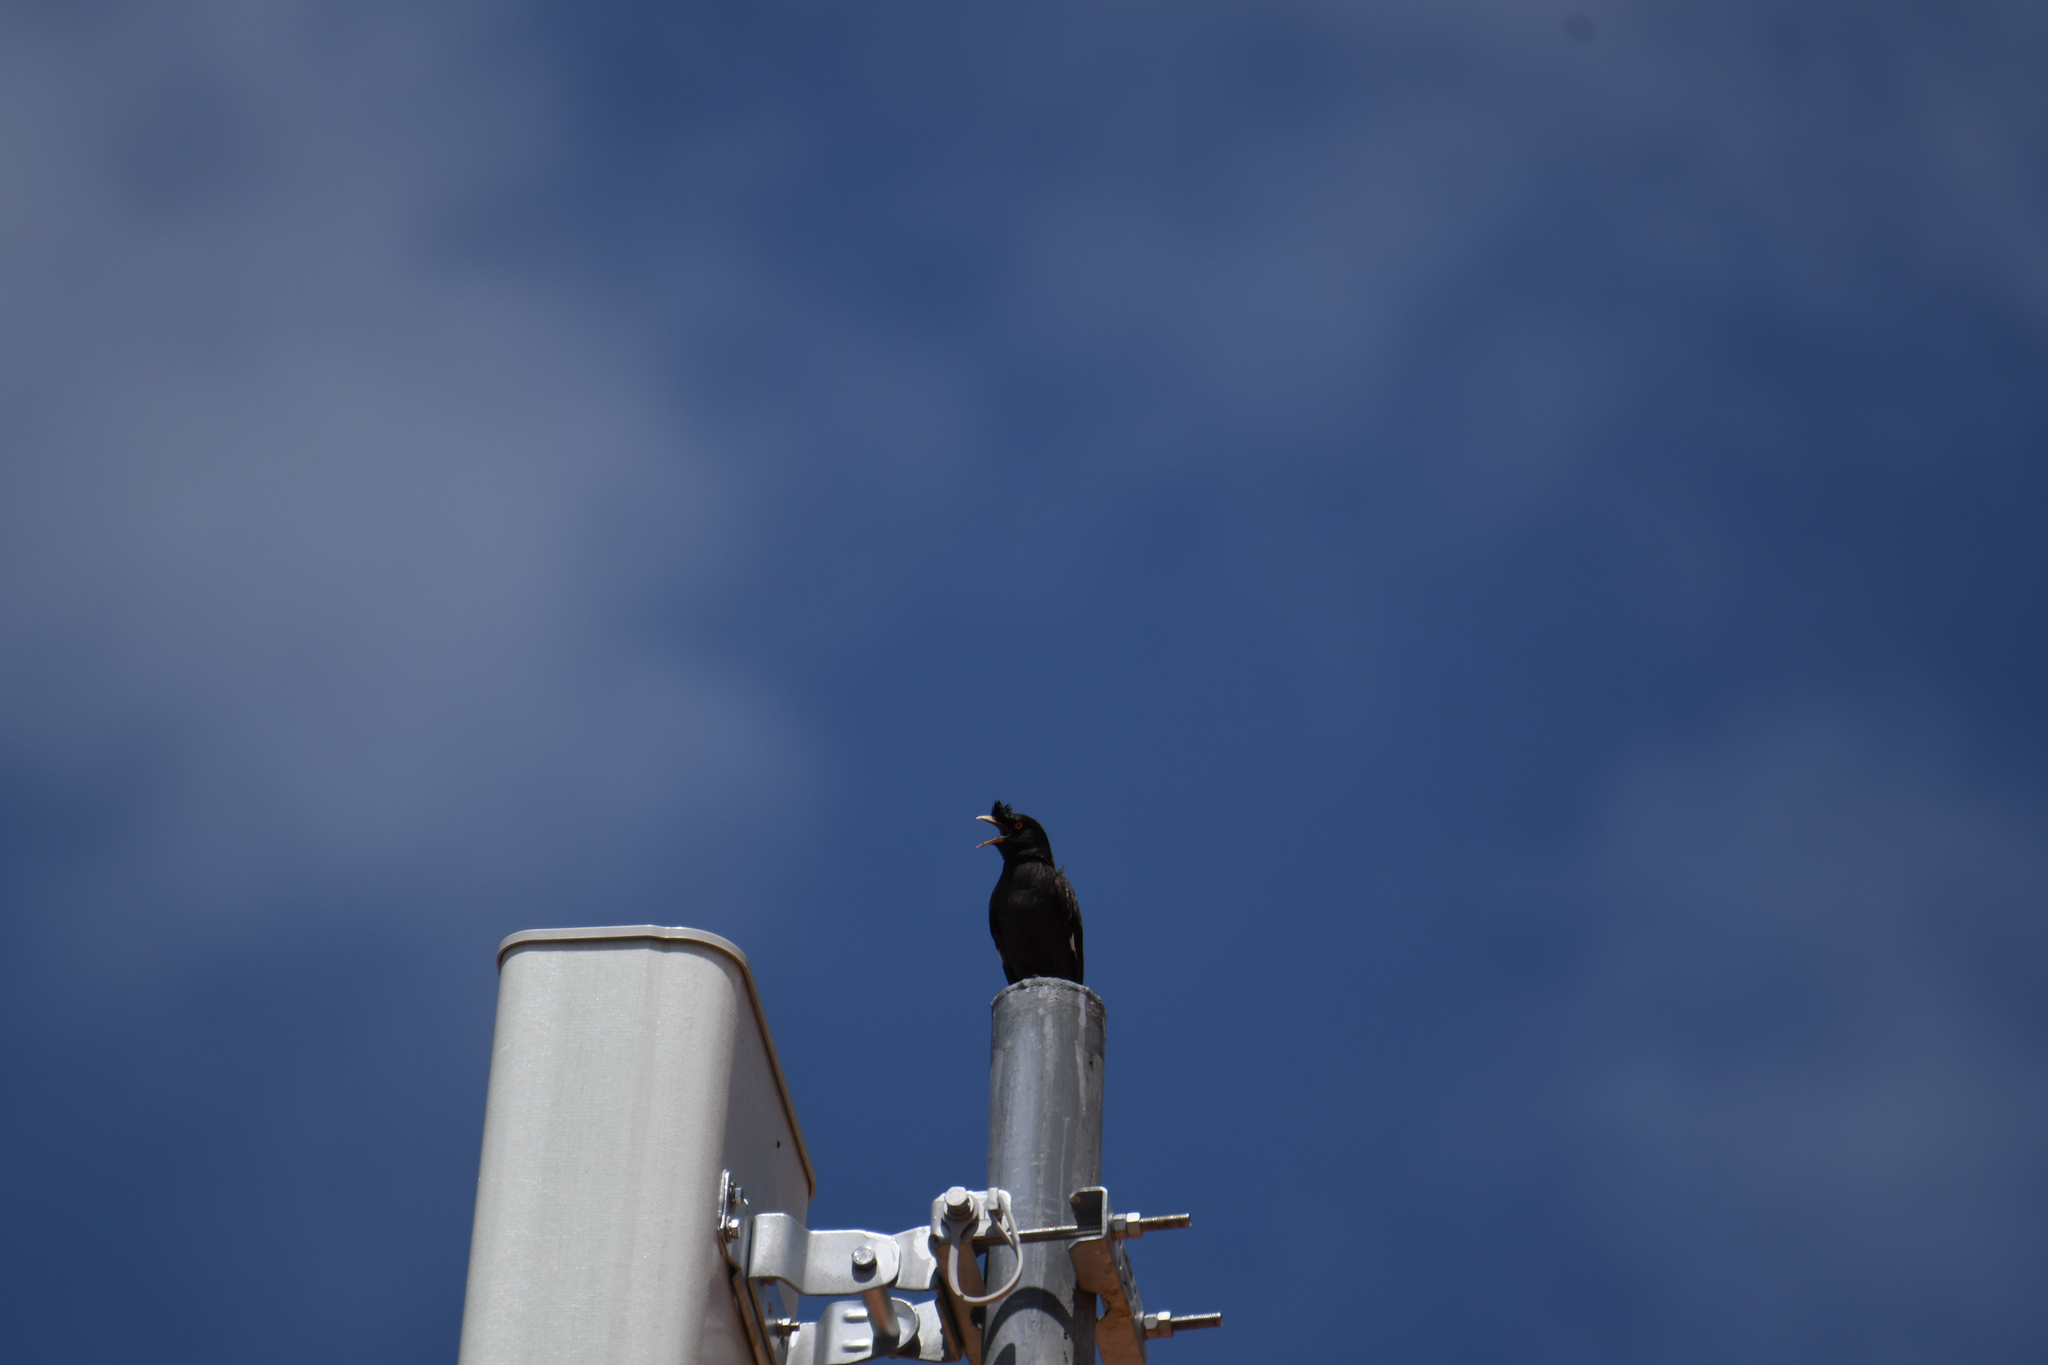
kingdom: Animalia
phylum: Chordata
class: Aves
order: Passeriformes
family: Sturnidae
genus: Acridotheres
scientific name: Acridotheres cristatellus
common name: Crested myna
